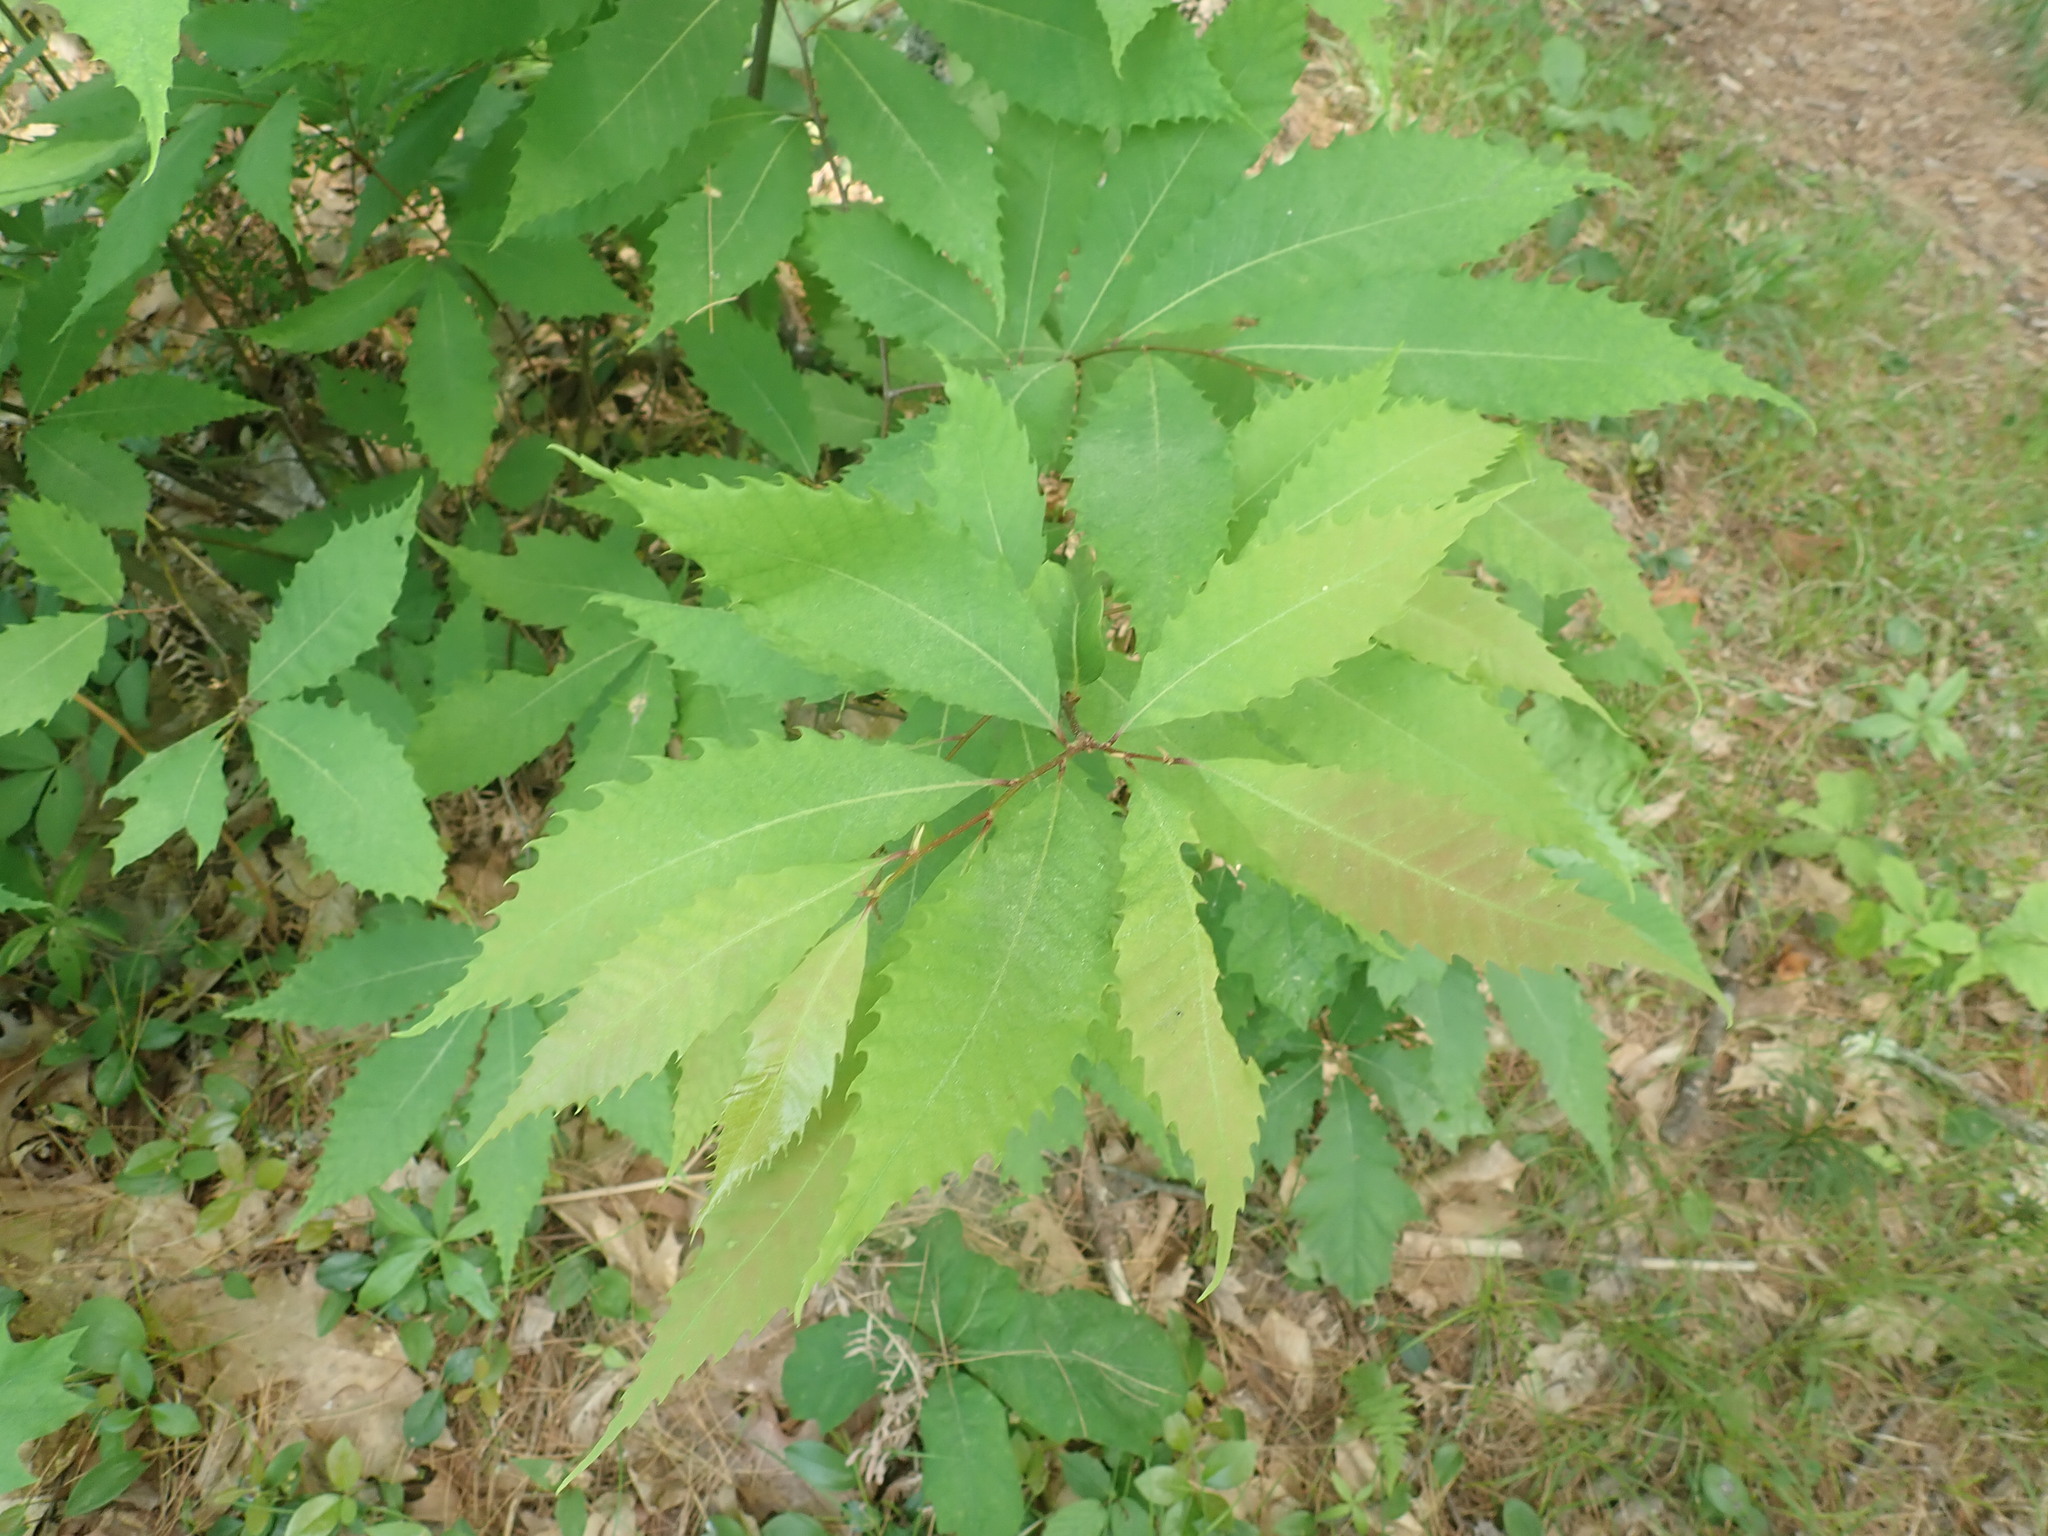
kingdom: Plantae
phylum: Tracheophyta
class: Magnoliopsida
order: Fagales
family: Fagaceae
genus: Castanea
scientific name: Castanea dentata
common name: American chestnut
